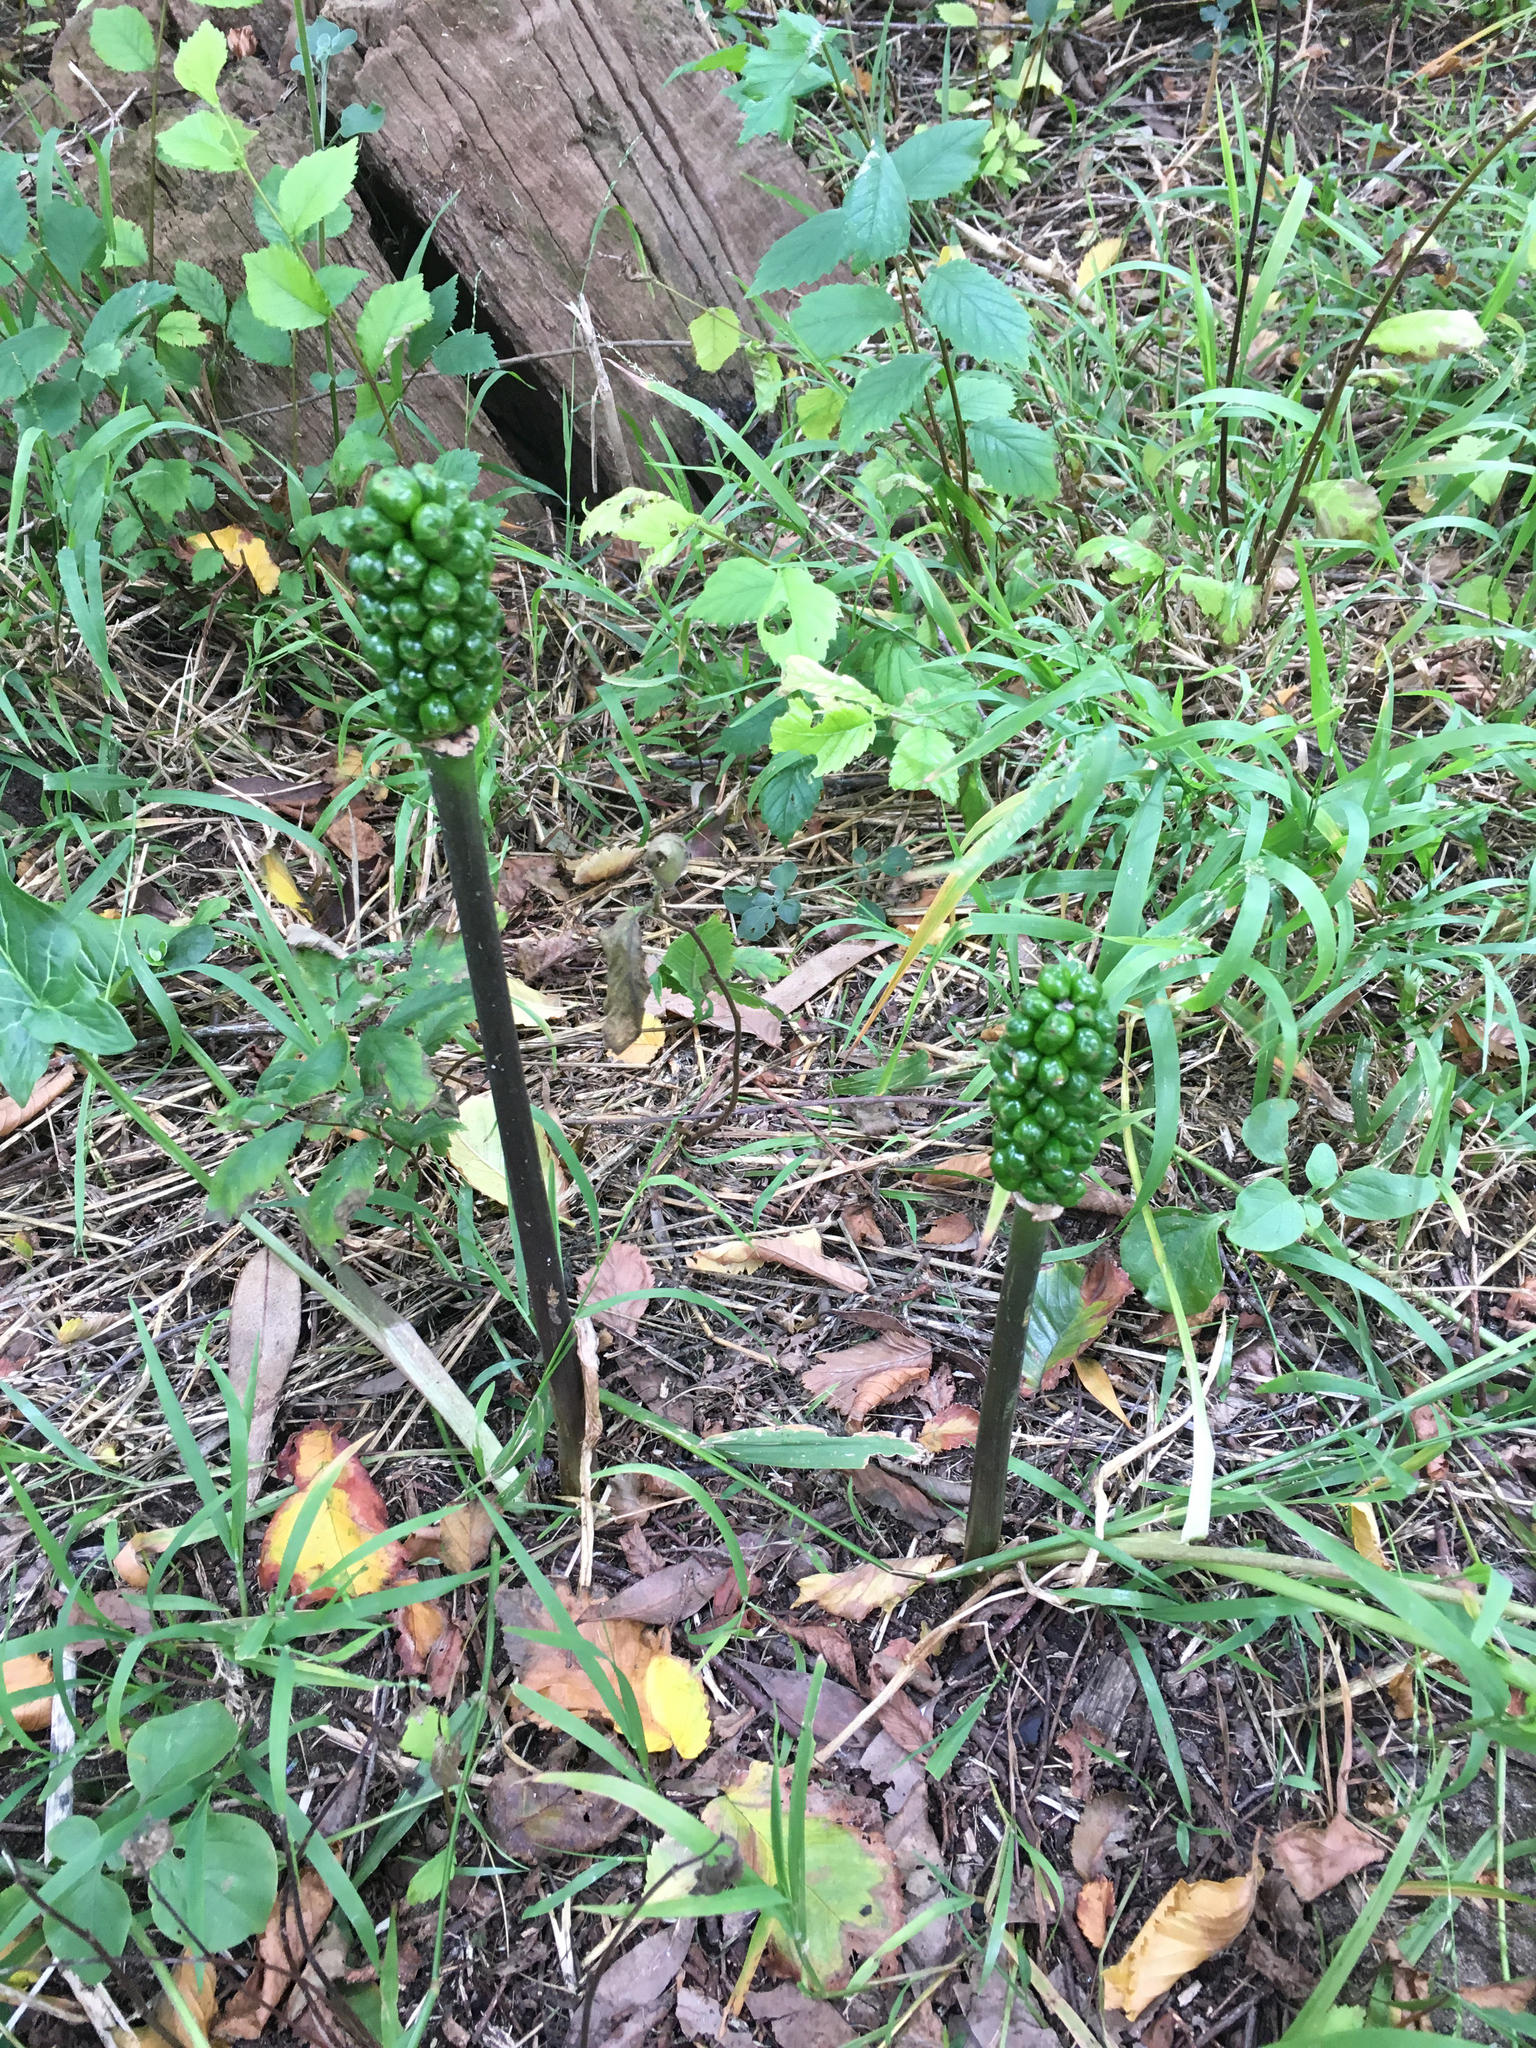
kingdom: Plantae
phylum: Tracheophyta
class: Liliopsida
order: Alismatales
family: Araceae
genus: Arum
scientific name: Arum italicum
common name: Italian lords-and-ladies
